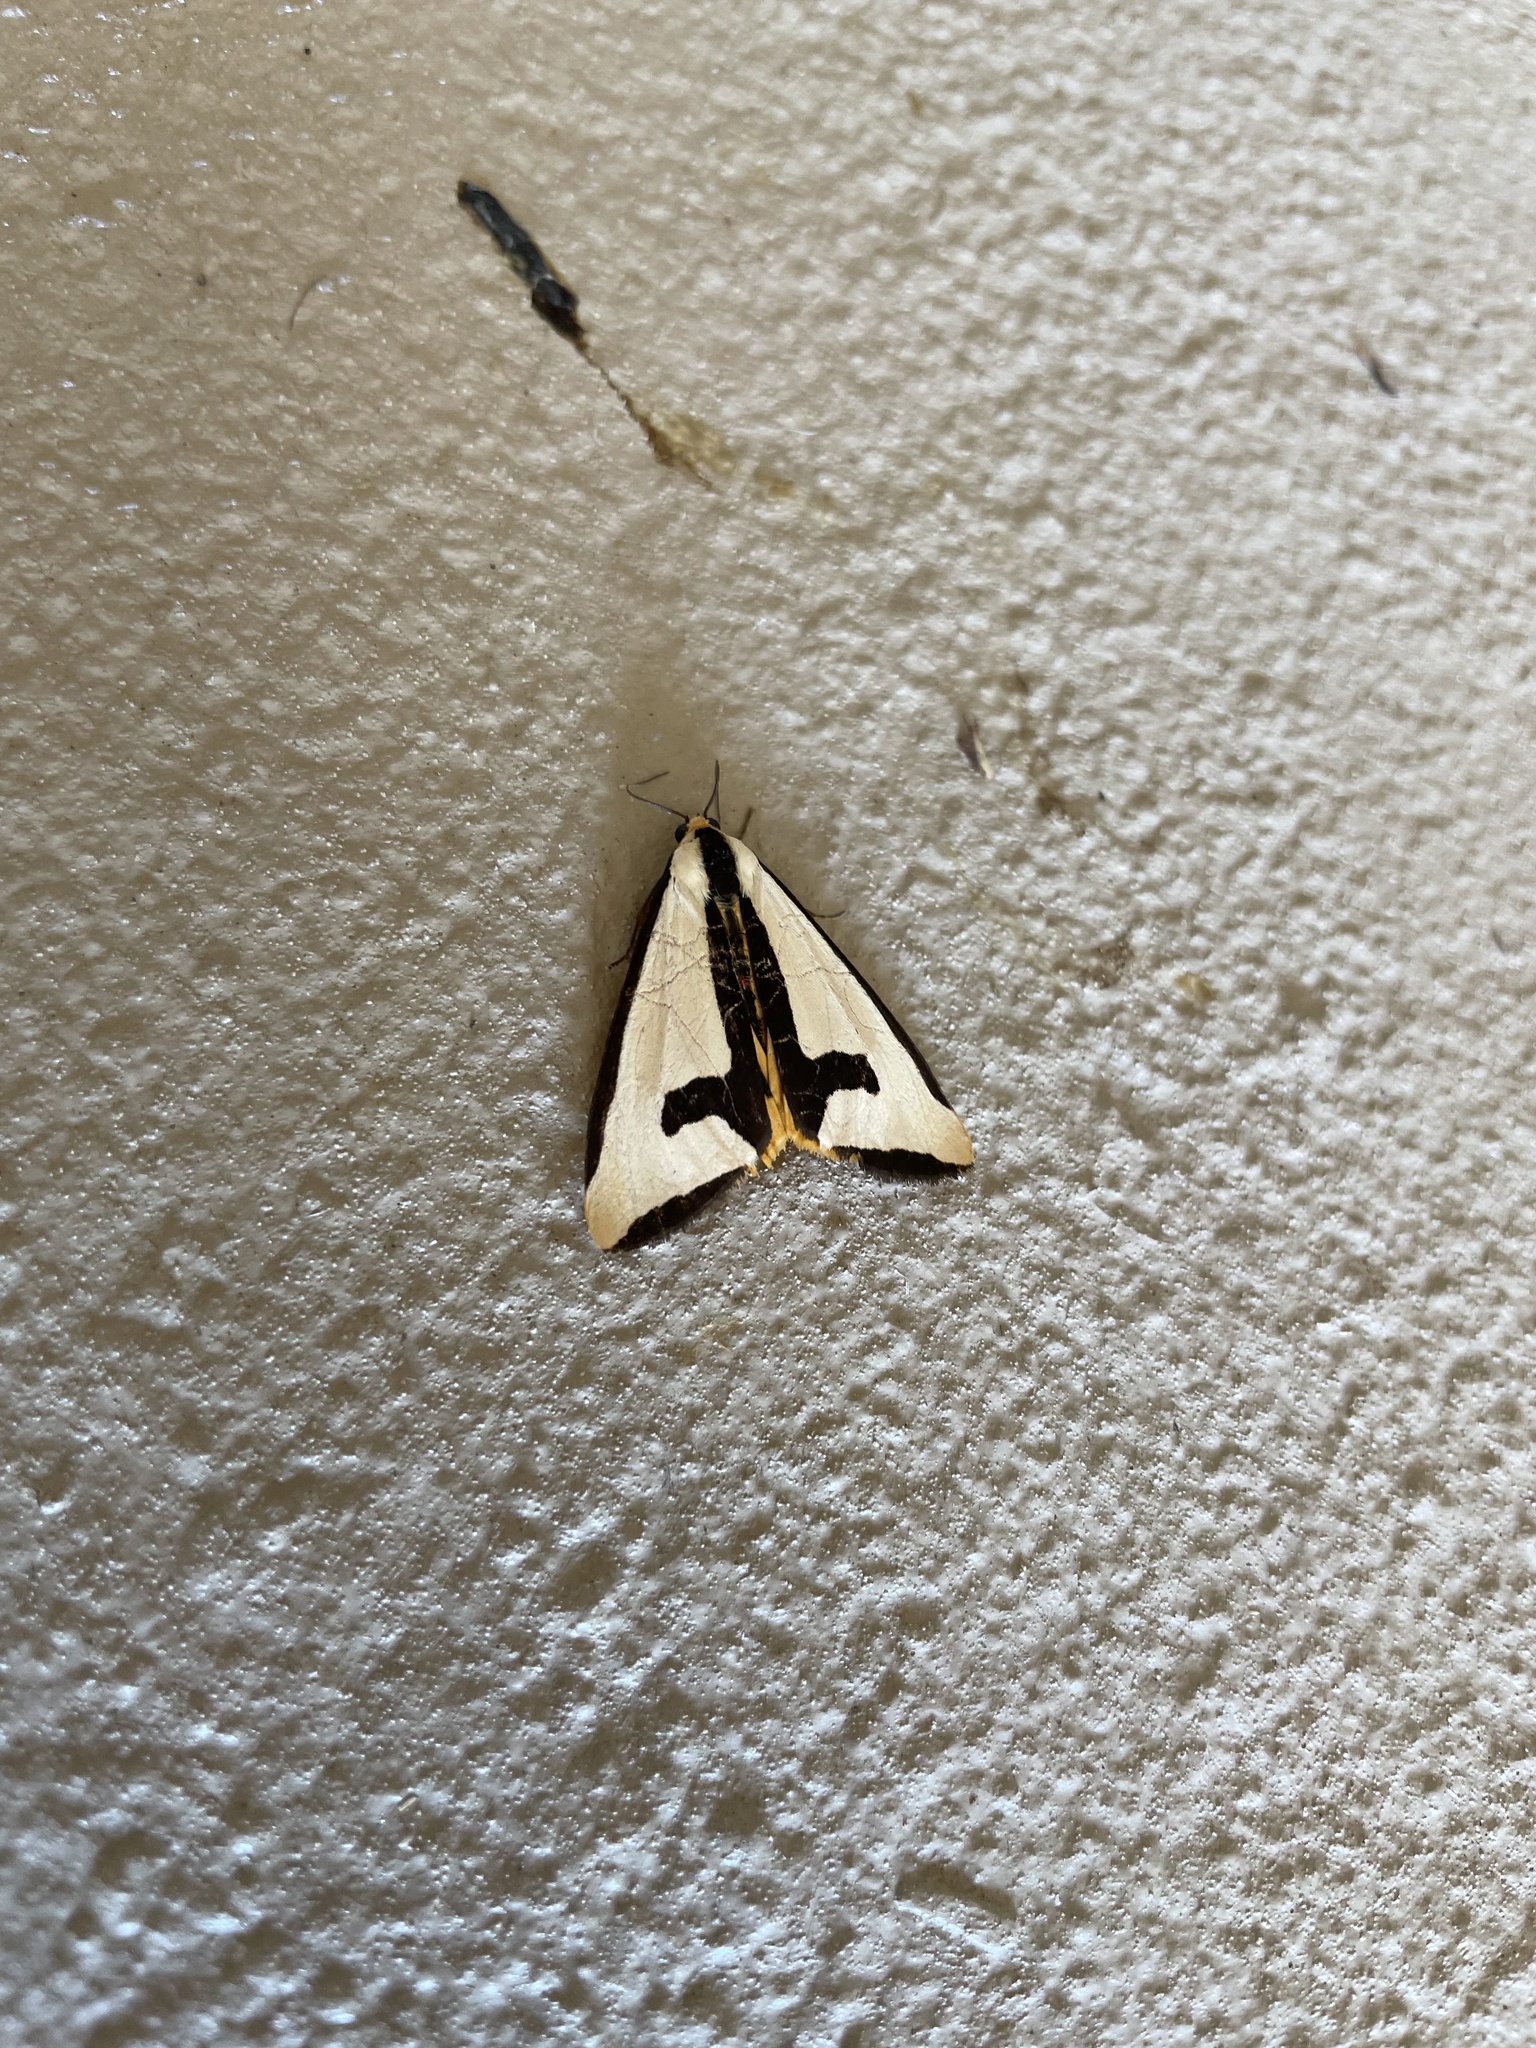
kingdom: Animalia
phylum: Arthropoda
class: Insecta
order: Lepidoptera
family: Erebidae
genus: Haploa
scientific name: Haploa clymene
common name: Clymene moth
